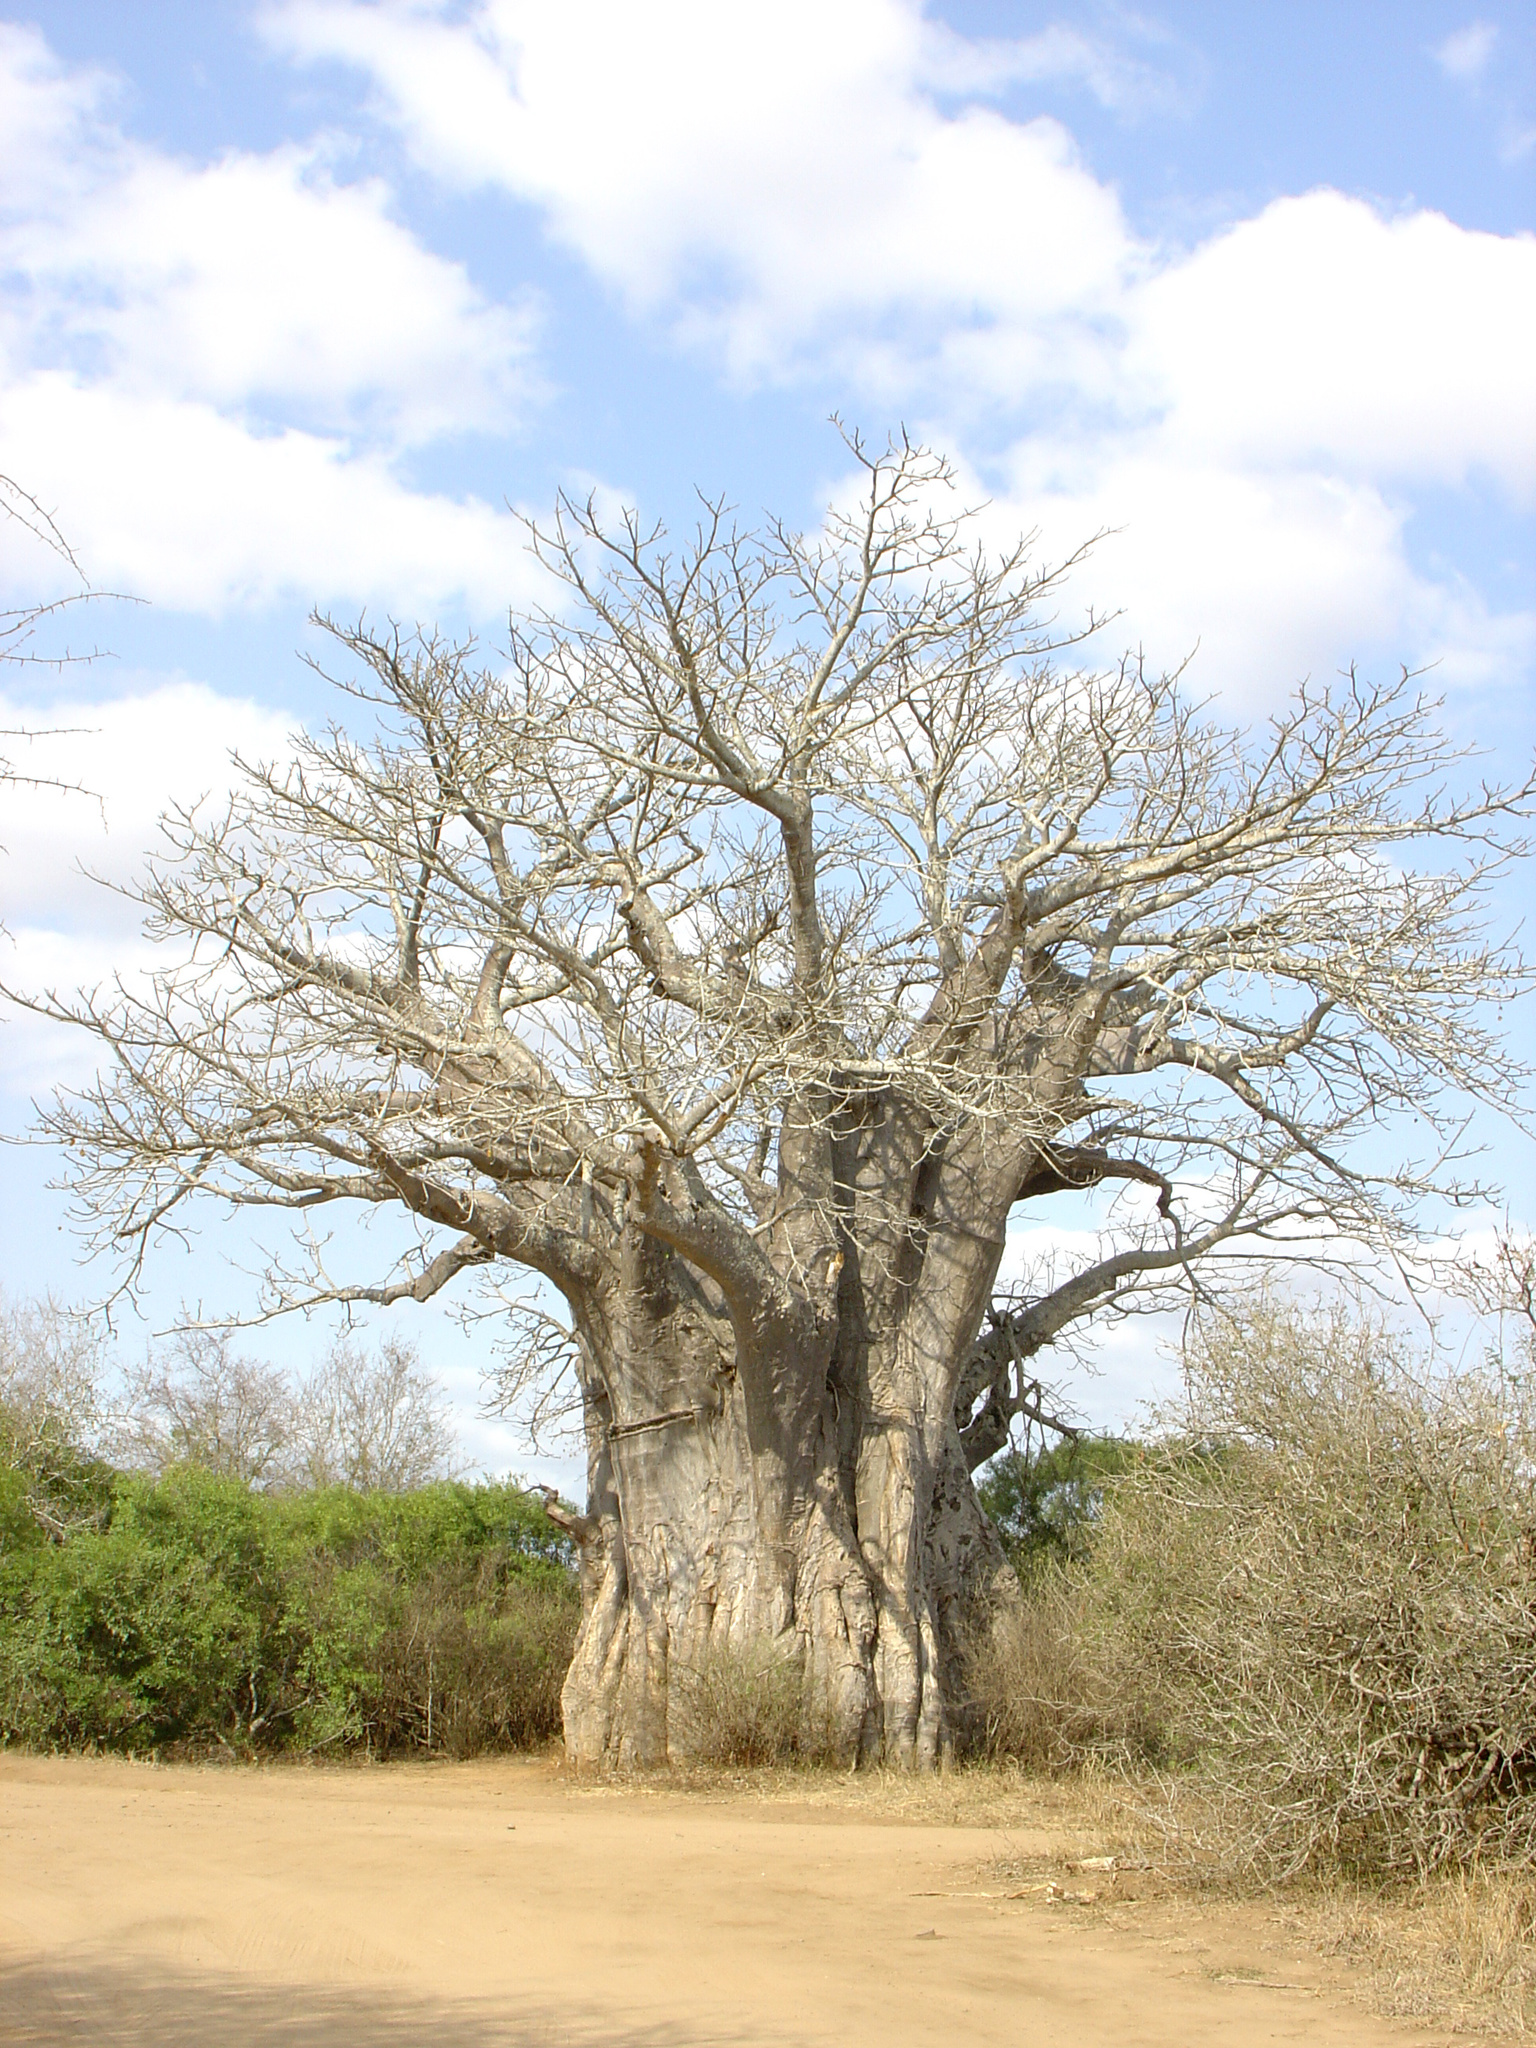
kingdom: Plantae
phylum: Tracheophyta
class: Magnoliopsida
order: Malvales
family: Malvaceae
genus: Adansonia
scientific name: Adansonia digitata
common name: Dead-rat-tree
